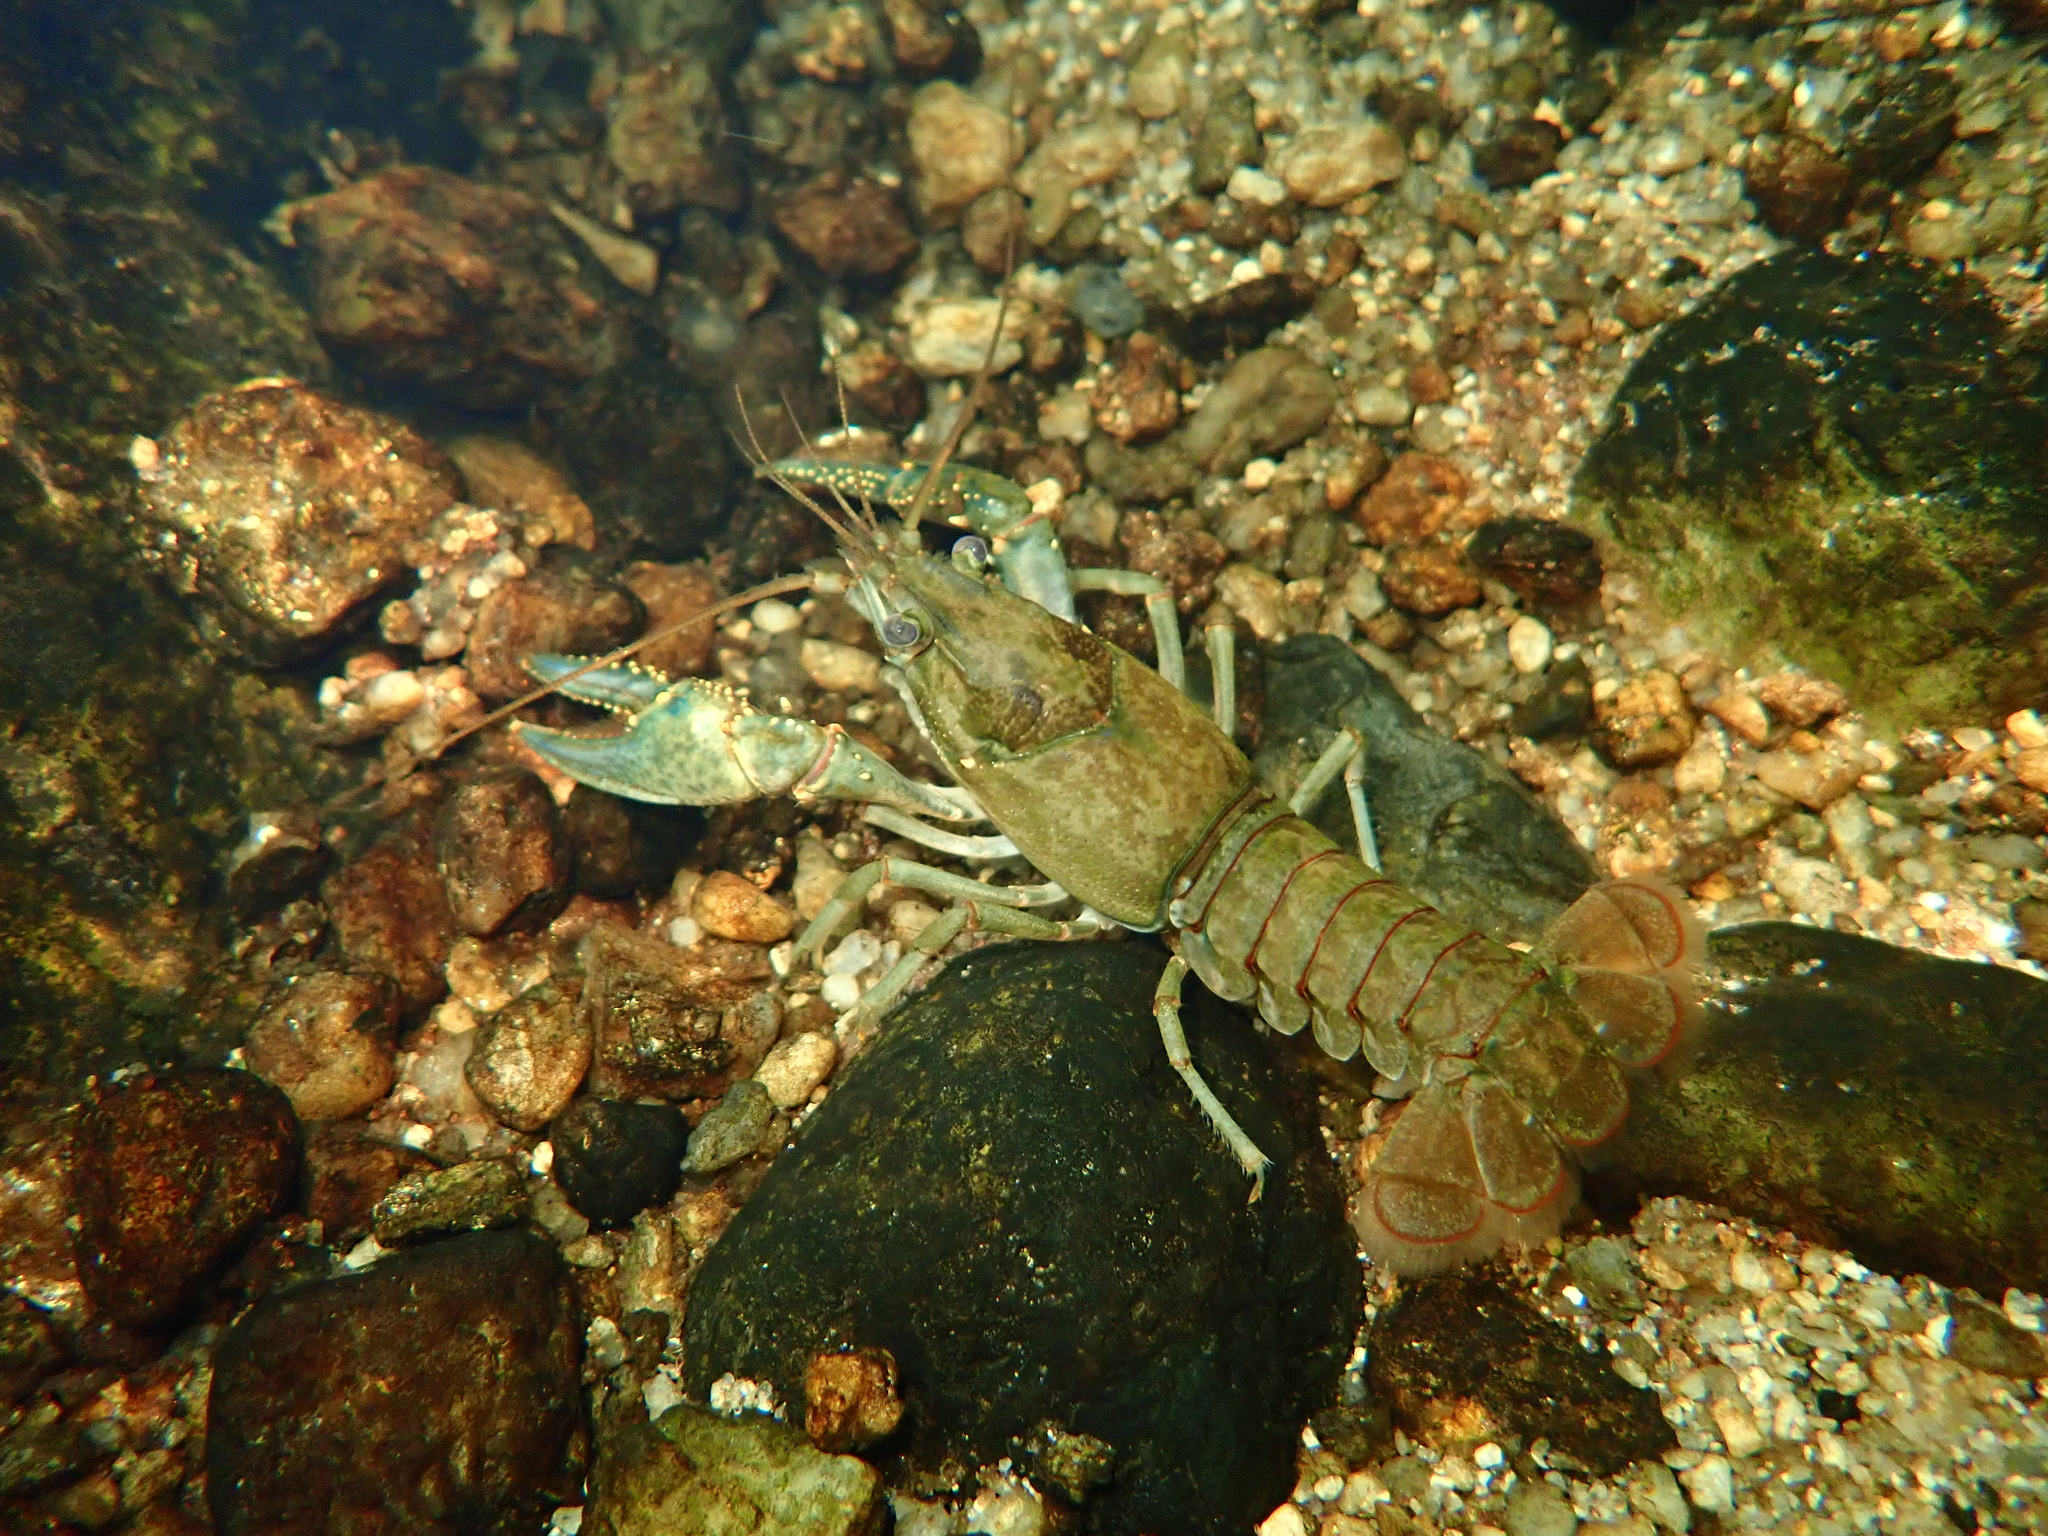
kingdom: Animalia
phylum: Arthropoda
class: Malacostraca
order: Decapoda
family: Cambaridae
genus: Faxonius
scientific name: Faxonius virilis
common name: Virile crayfish
